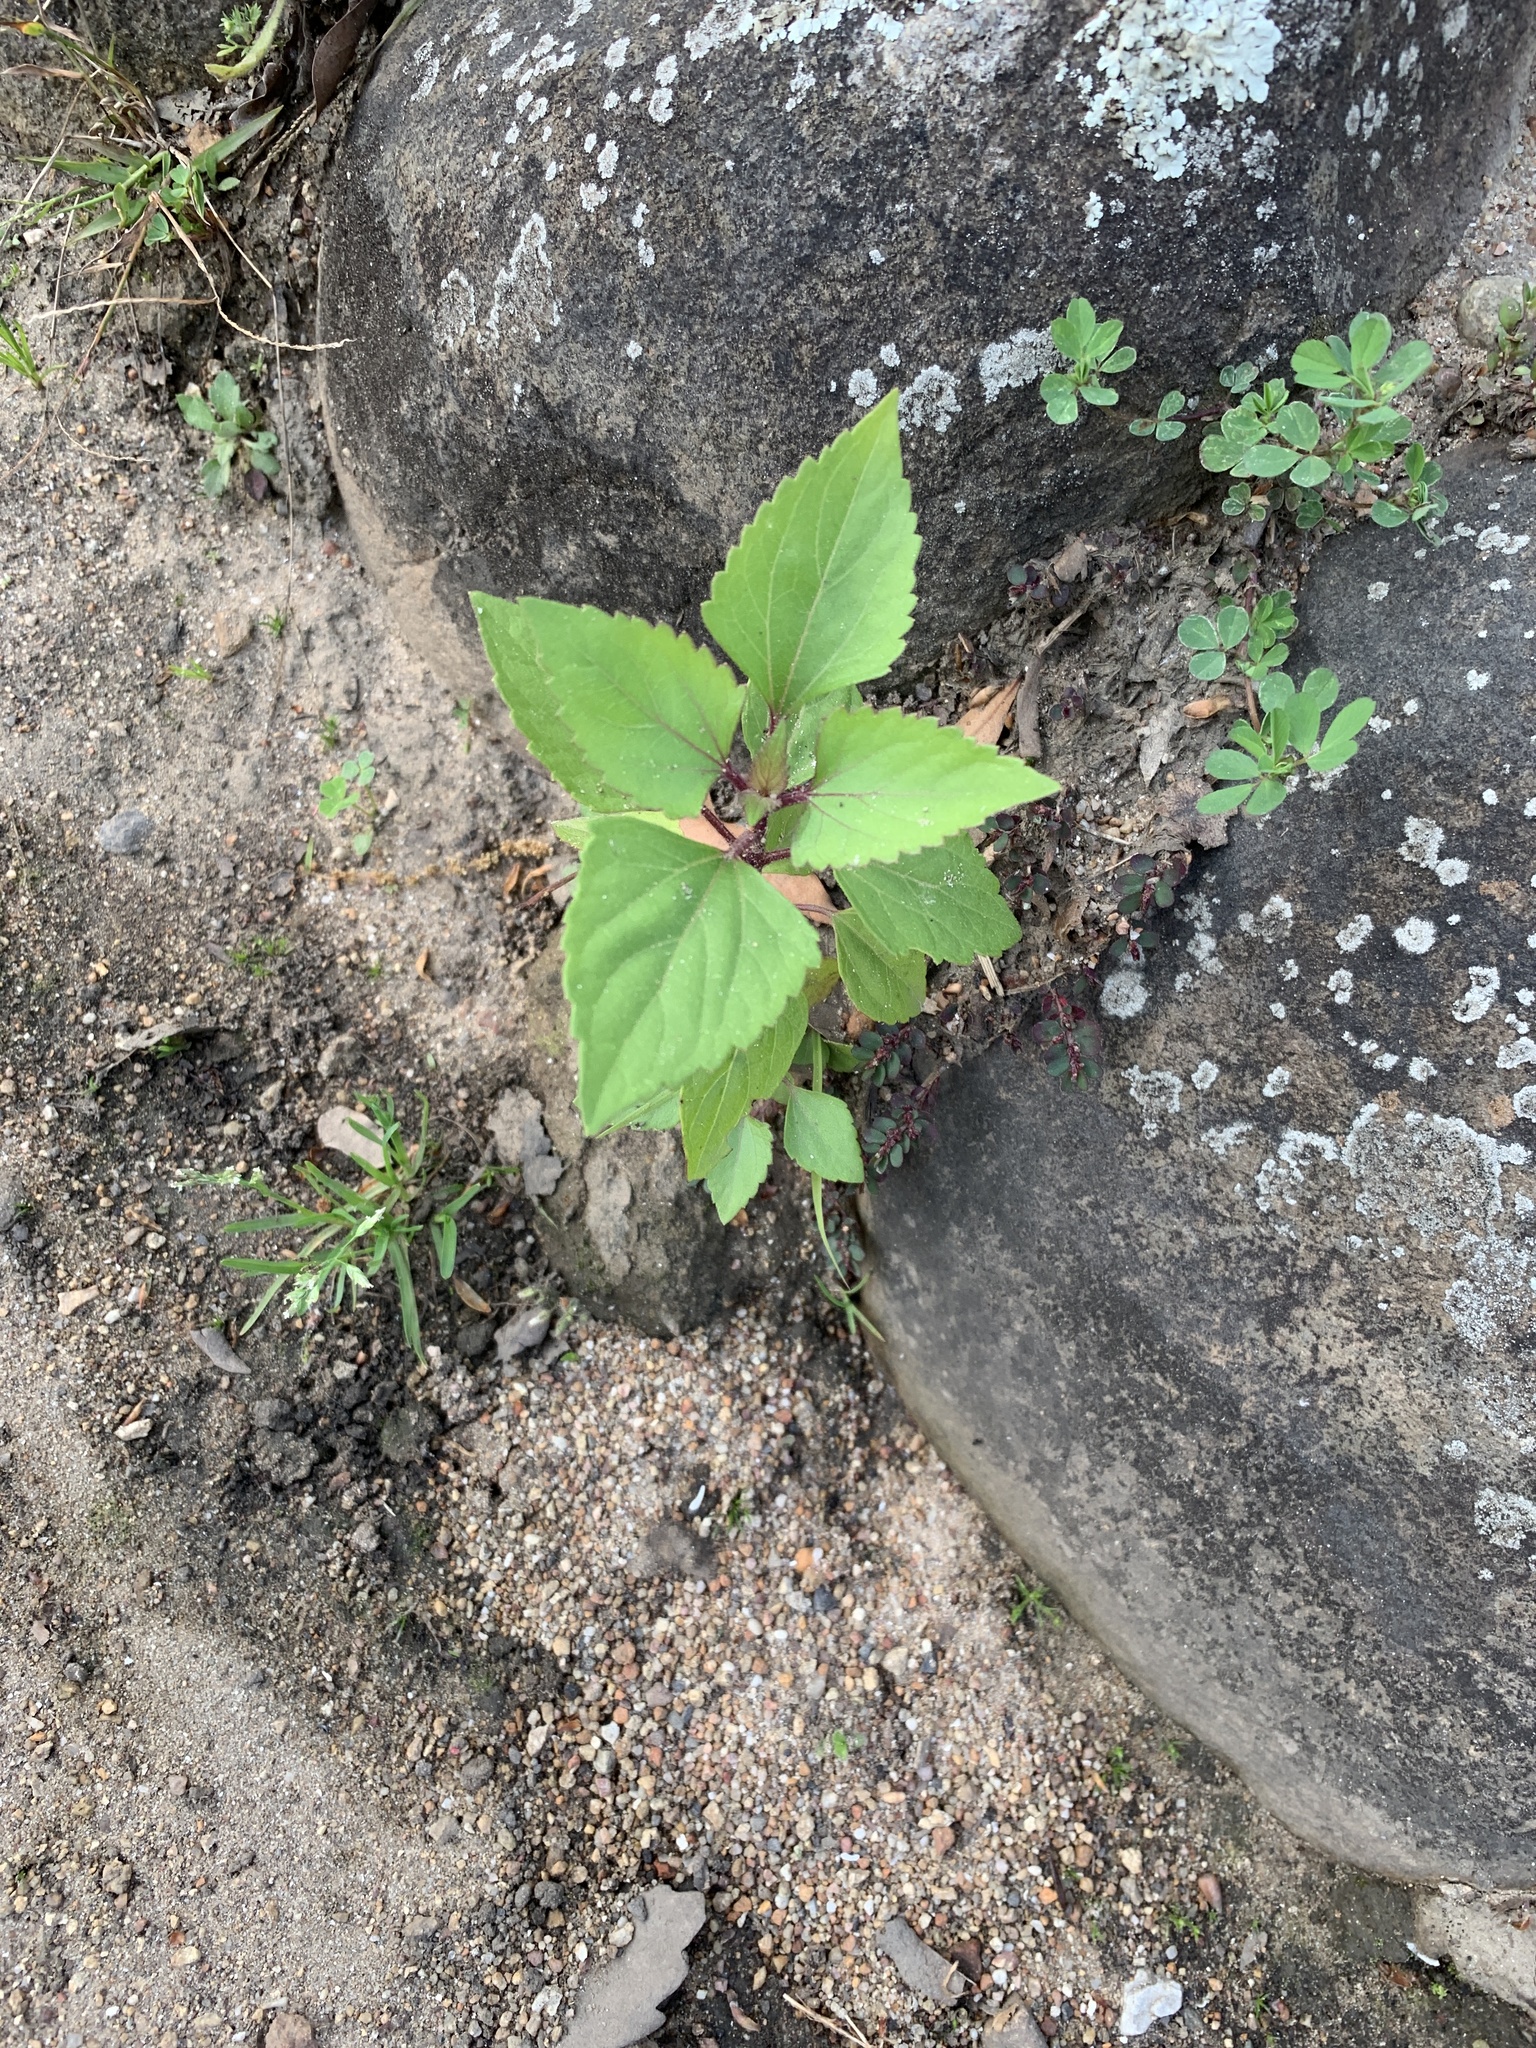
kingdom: Plantae
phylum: Tracheophyta
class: Magnoliopsida
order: Asterales
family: Asteraceae
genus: Ageratina
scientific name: Ageratina adenophora
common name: Sticky snakeroot
